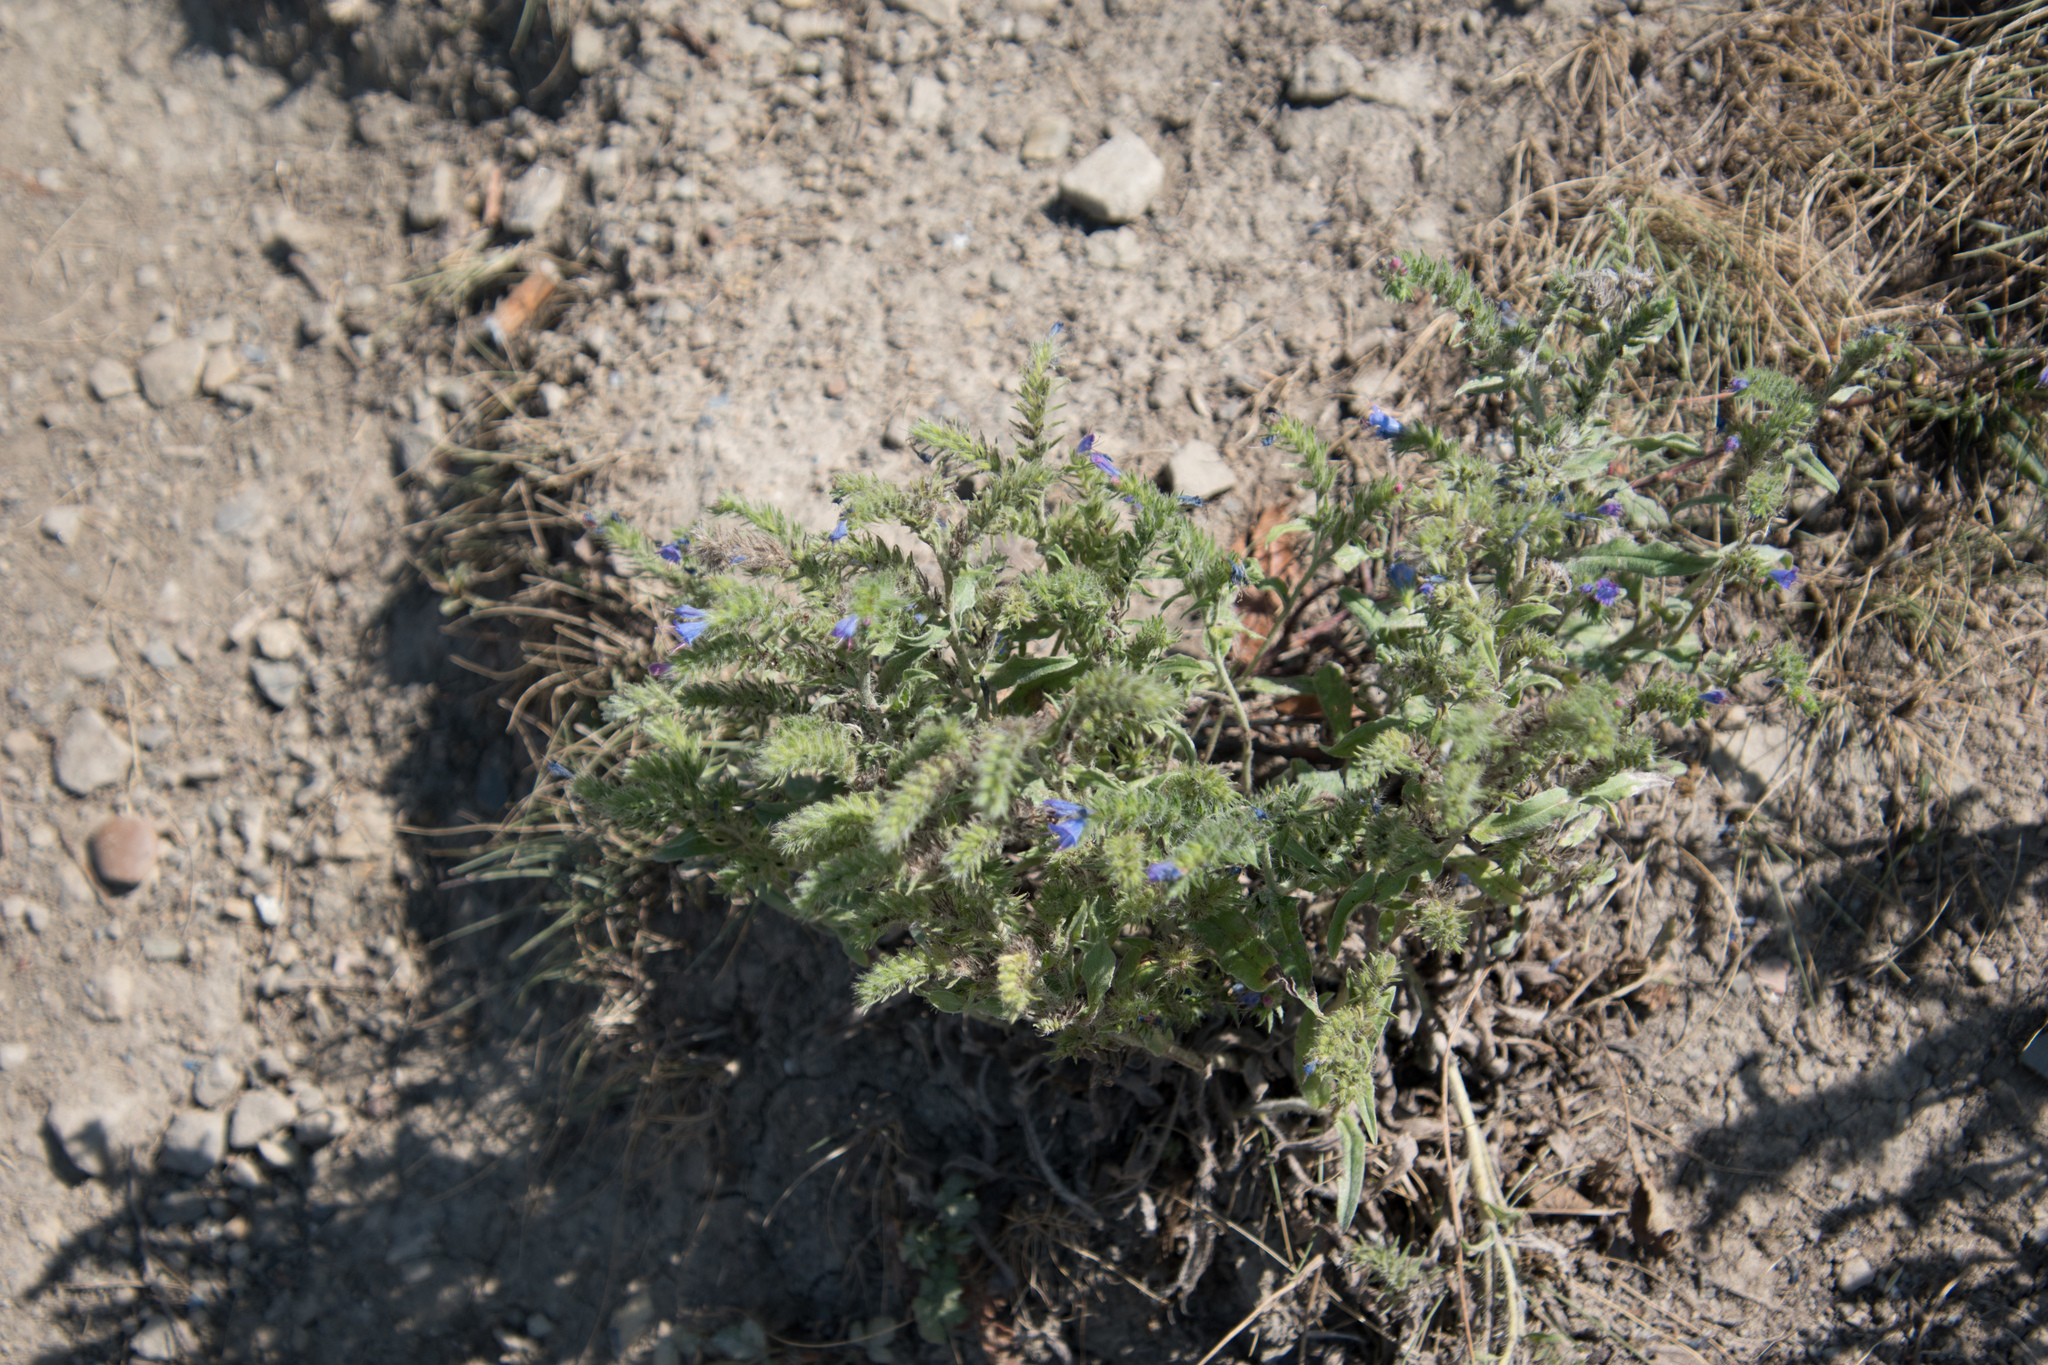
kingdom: Plantae
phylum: Tracheophyta
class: Magnoliopsida
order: Boraginales
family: Boraginaceae
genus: Echium
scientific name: Echium vulgare
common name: Common viper's bugloss
